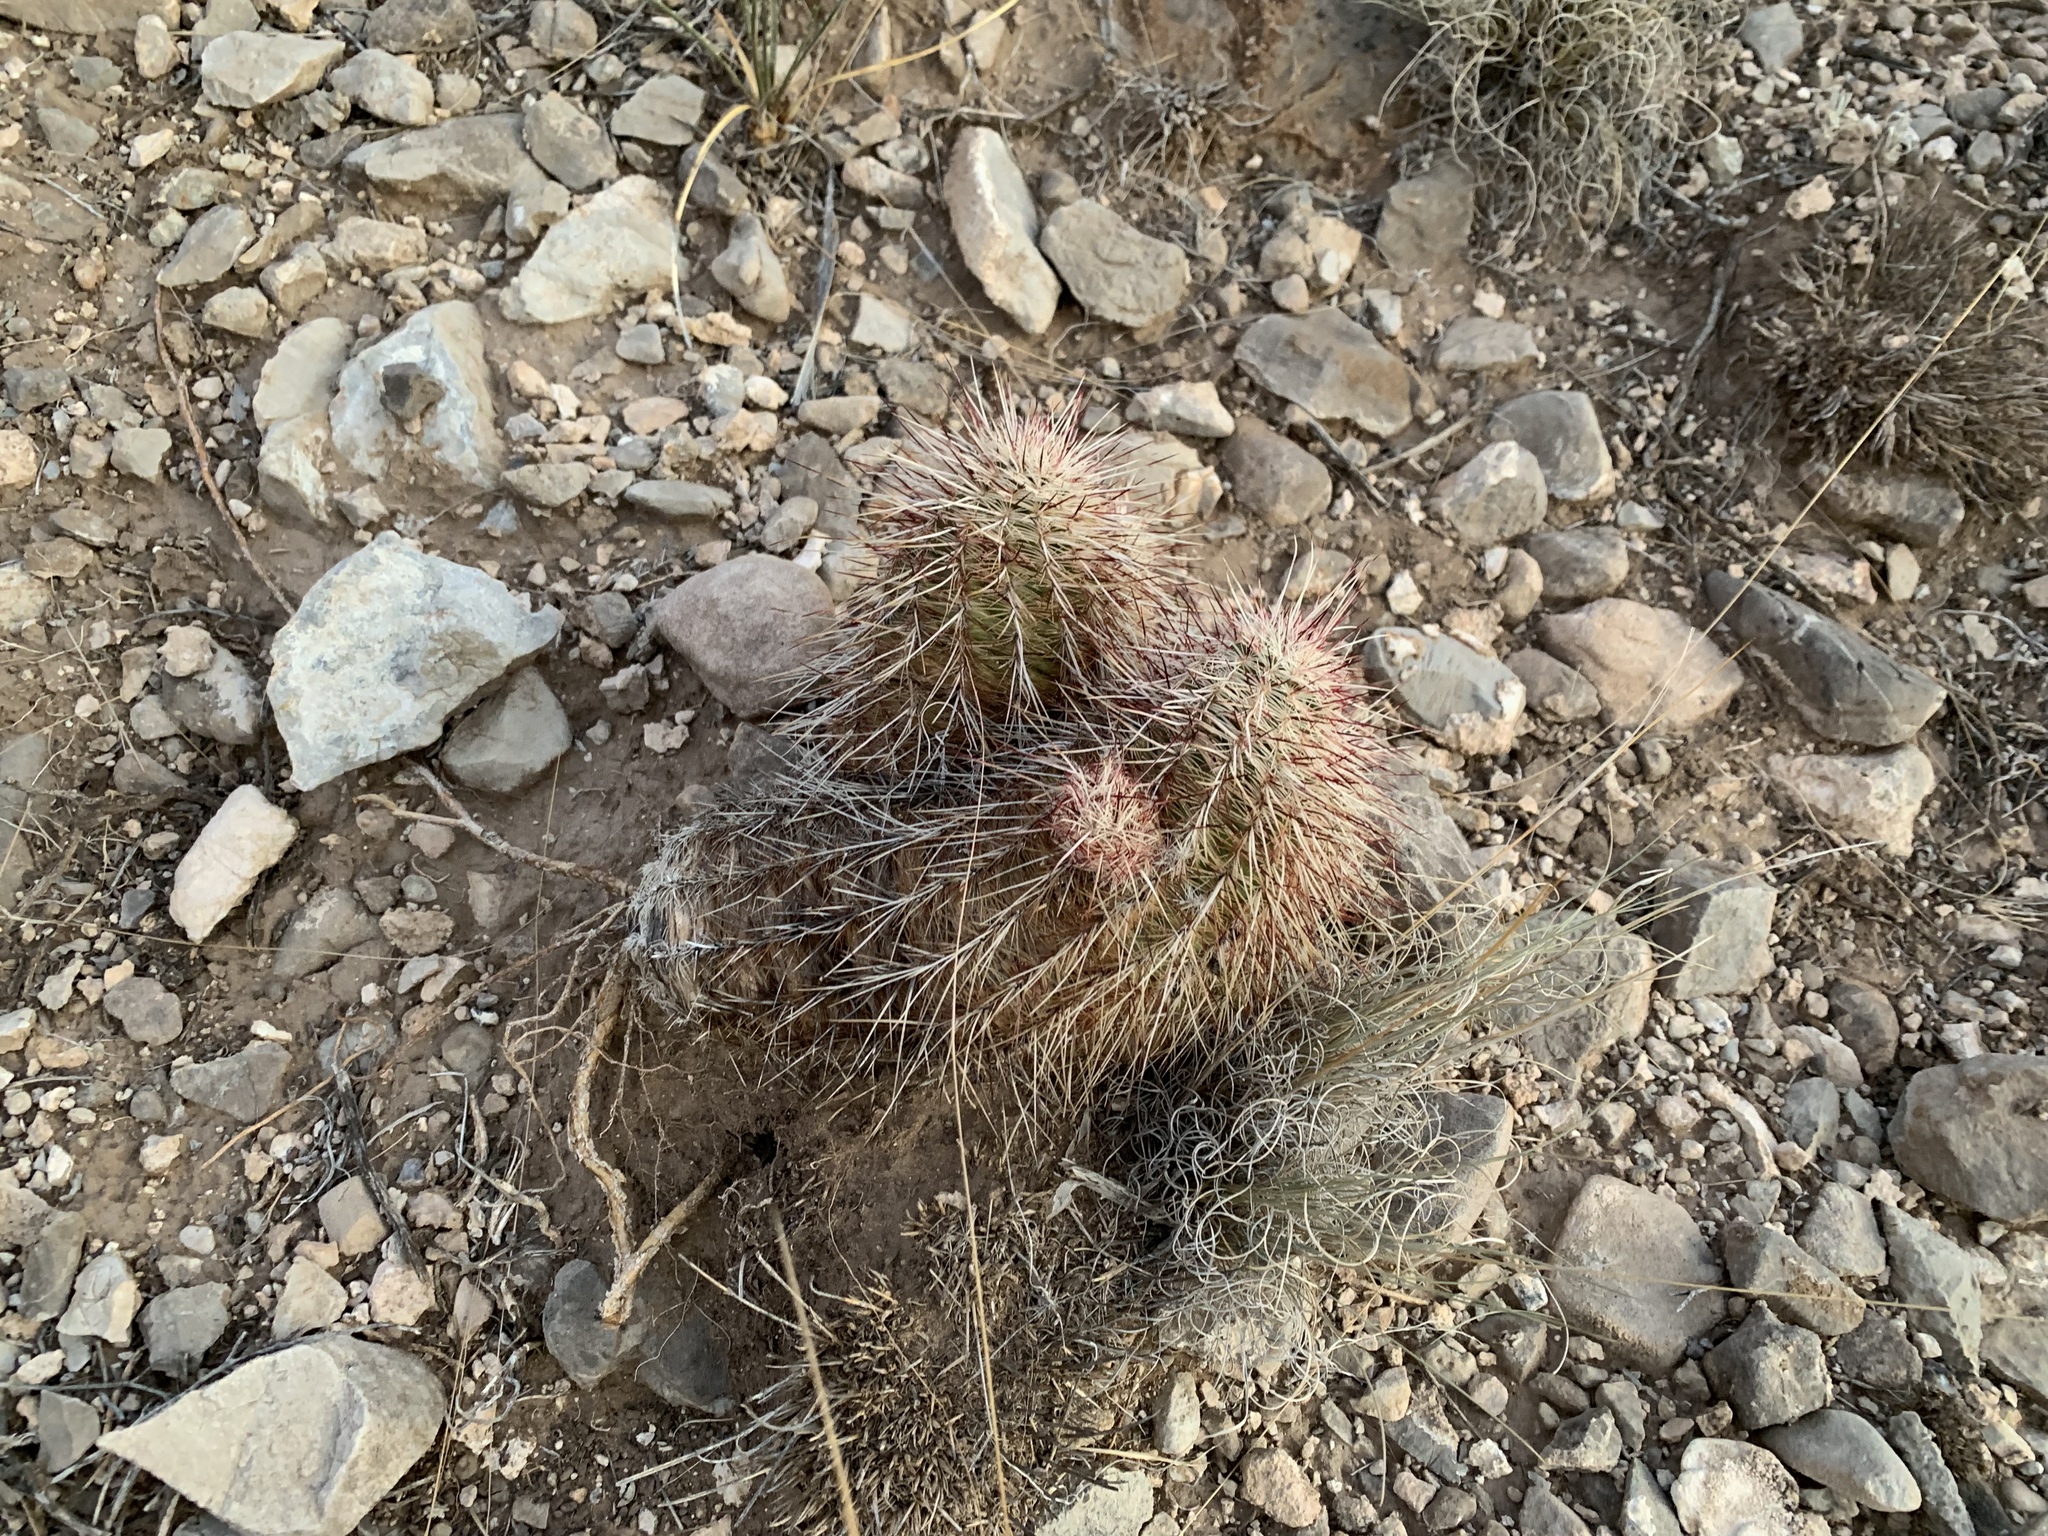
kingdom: Plantae
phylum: Tracheophyta
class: Magnoliopsida
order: Caryophyllales
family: Cactaceae
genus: Echinocereus
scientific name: Echinocereus viridiflorus
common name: Nylon hedgehog cactus
